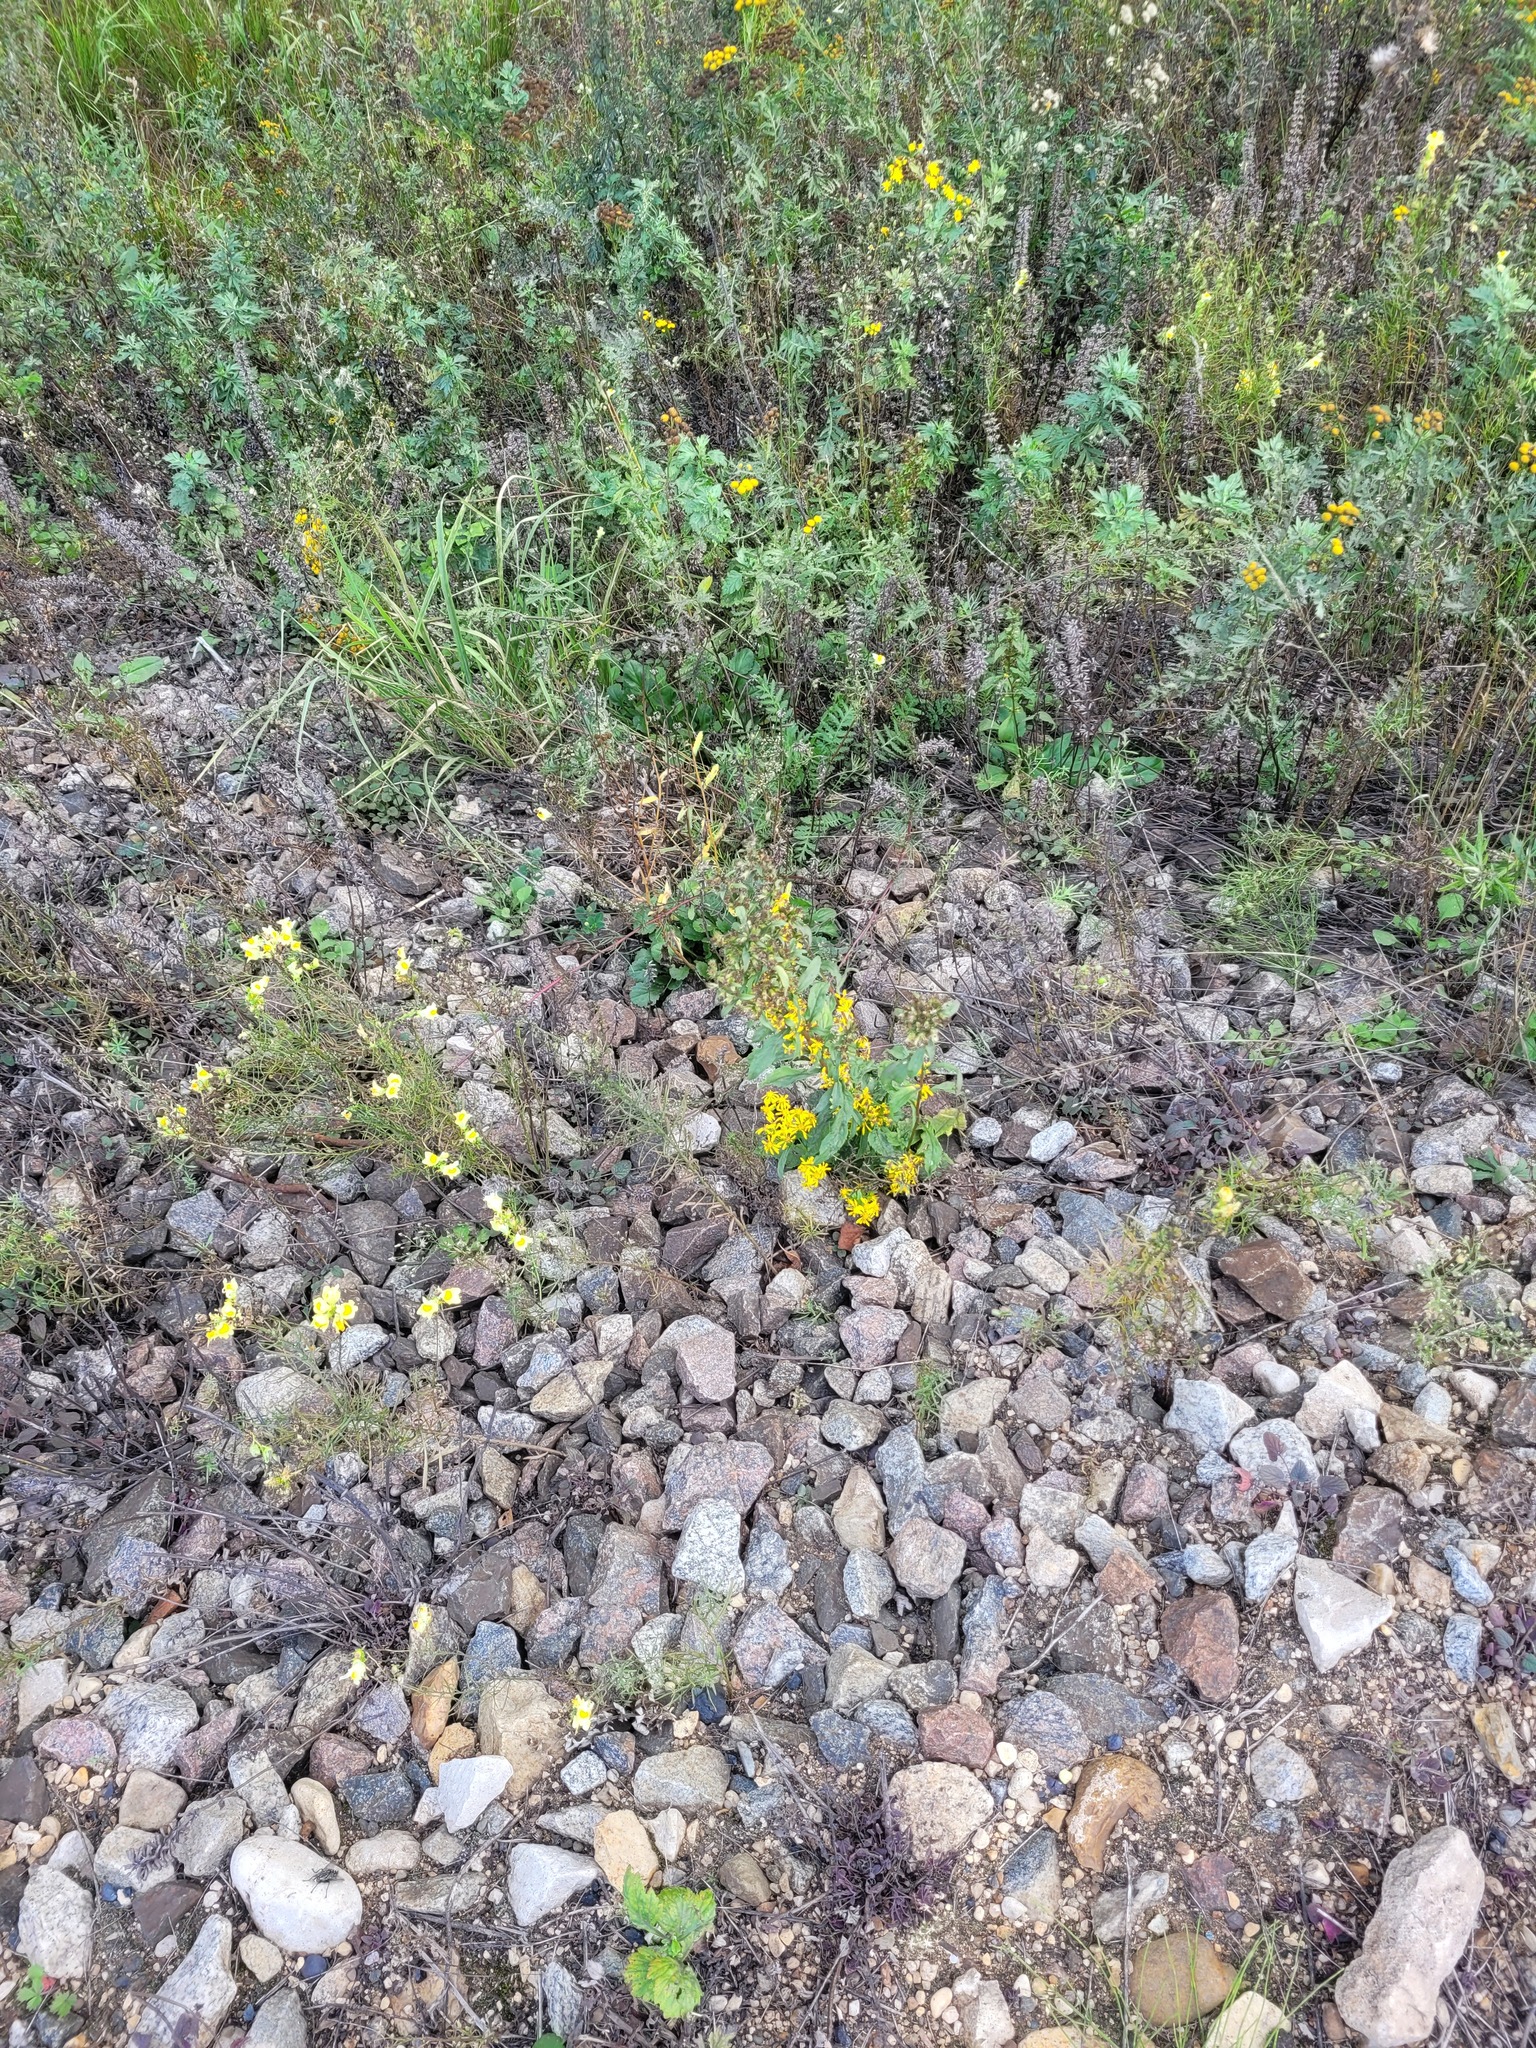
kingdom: Plantae
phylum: Tracheophyta
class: Magnoliopsida
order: Asterales
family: Asteraceae
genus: Solidago
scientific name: Solidago virgaurea
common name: Goldenrod
